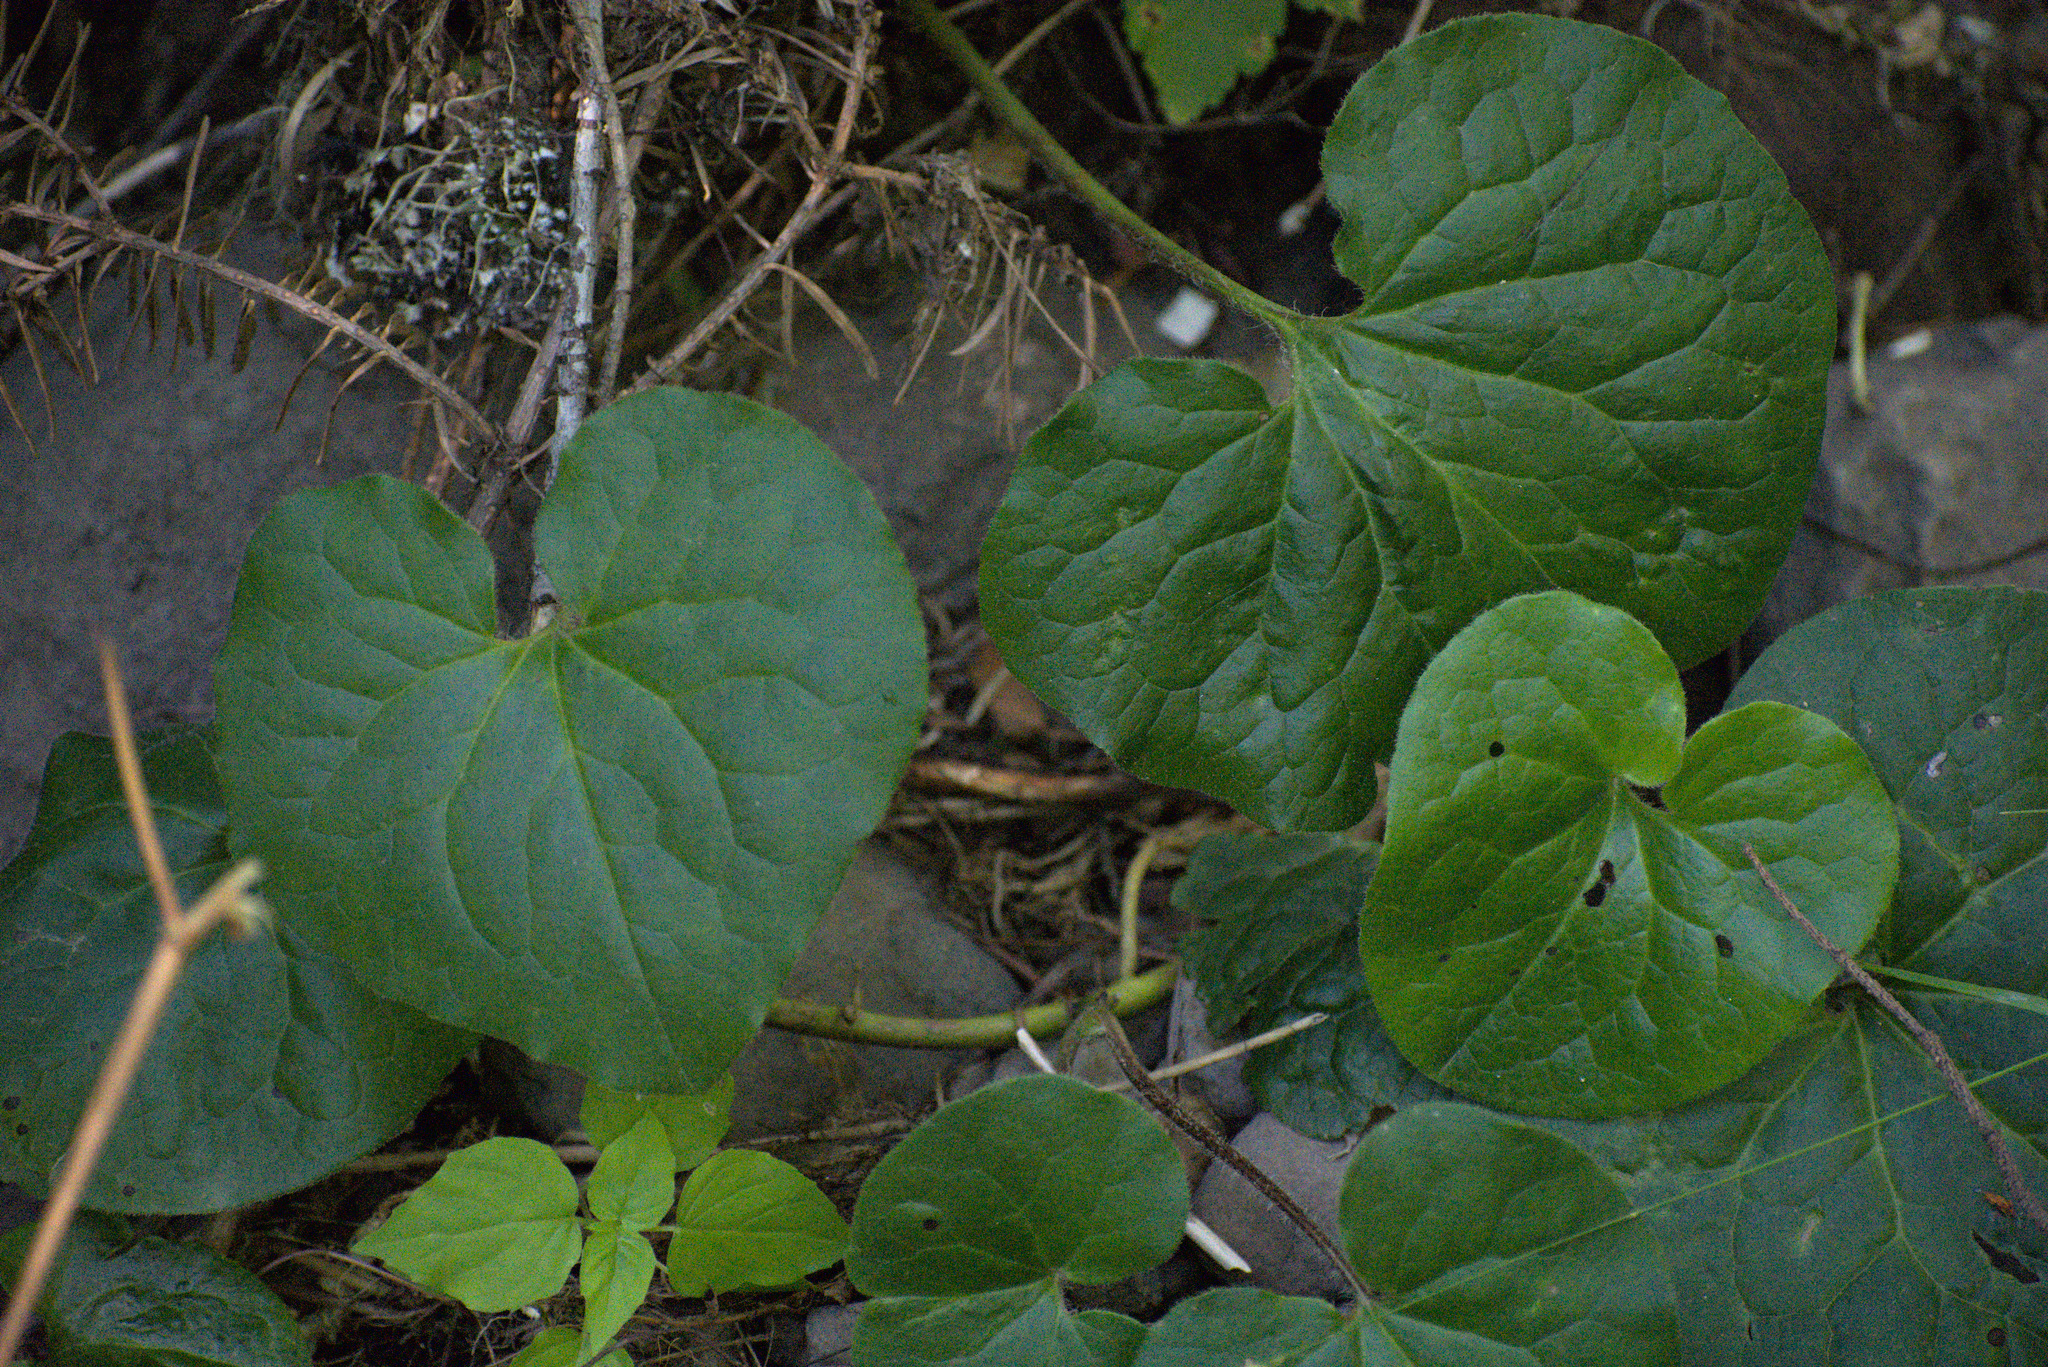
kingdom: Plantae
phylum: Tracheophyta
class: Magnoliopsida
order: Piperales
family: Aristolochiaceae
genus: Asarum
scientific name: Asarum caudatum
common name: Wild ginger
